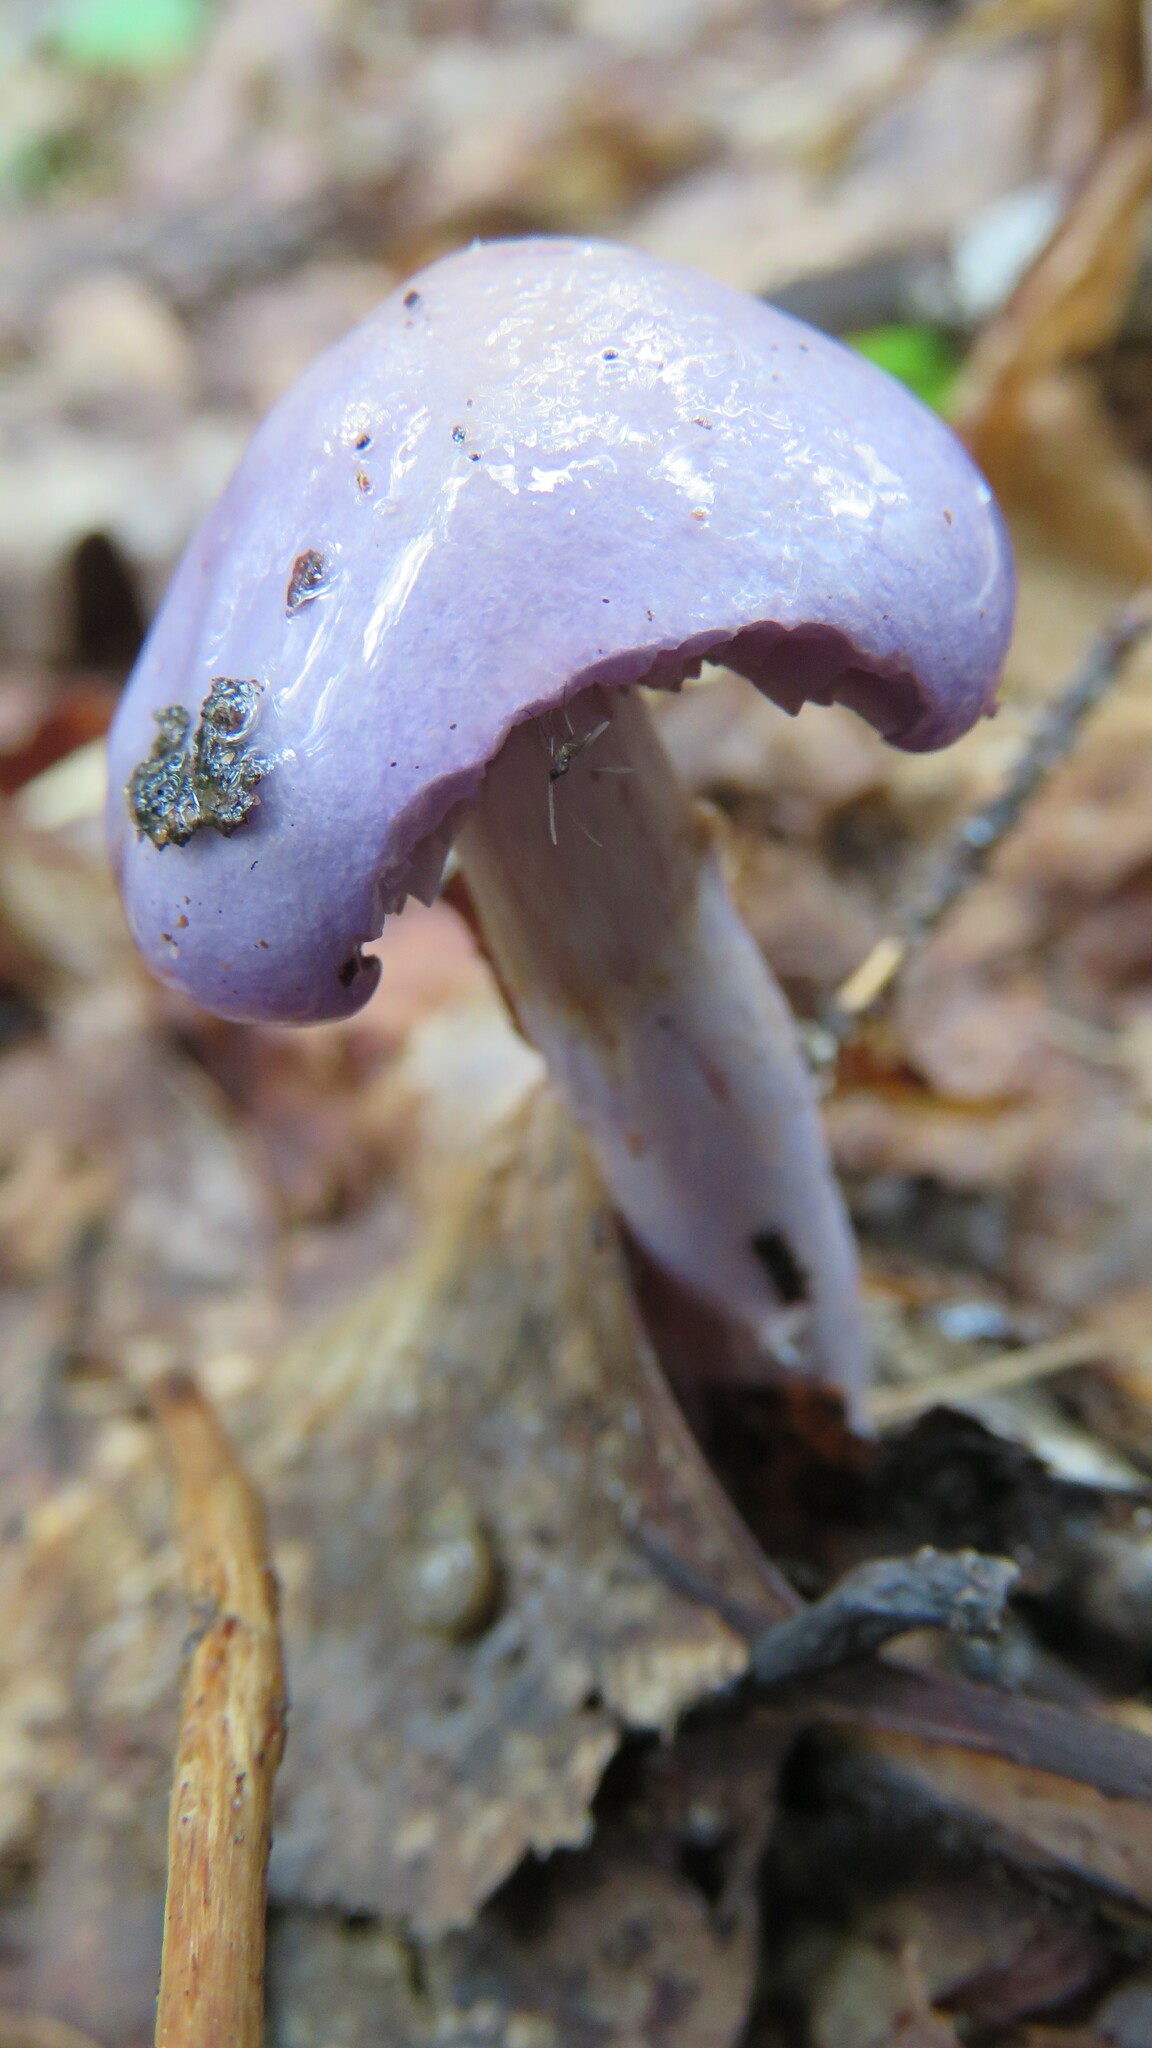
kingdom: Fungi
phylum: Basidiomycota
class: Agaricomycetes
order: Agaricales
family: Cortinariaceae
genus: Cortinarius
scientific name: Cortinarius iodes
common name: Viscid violet cort
